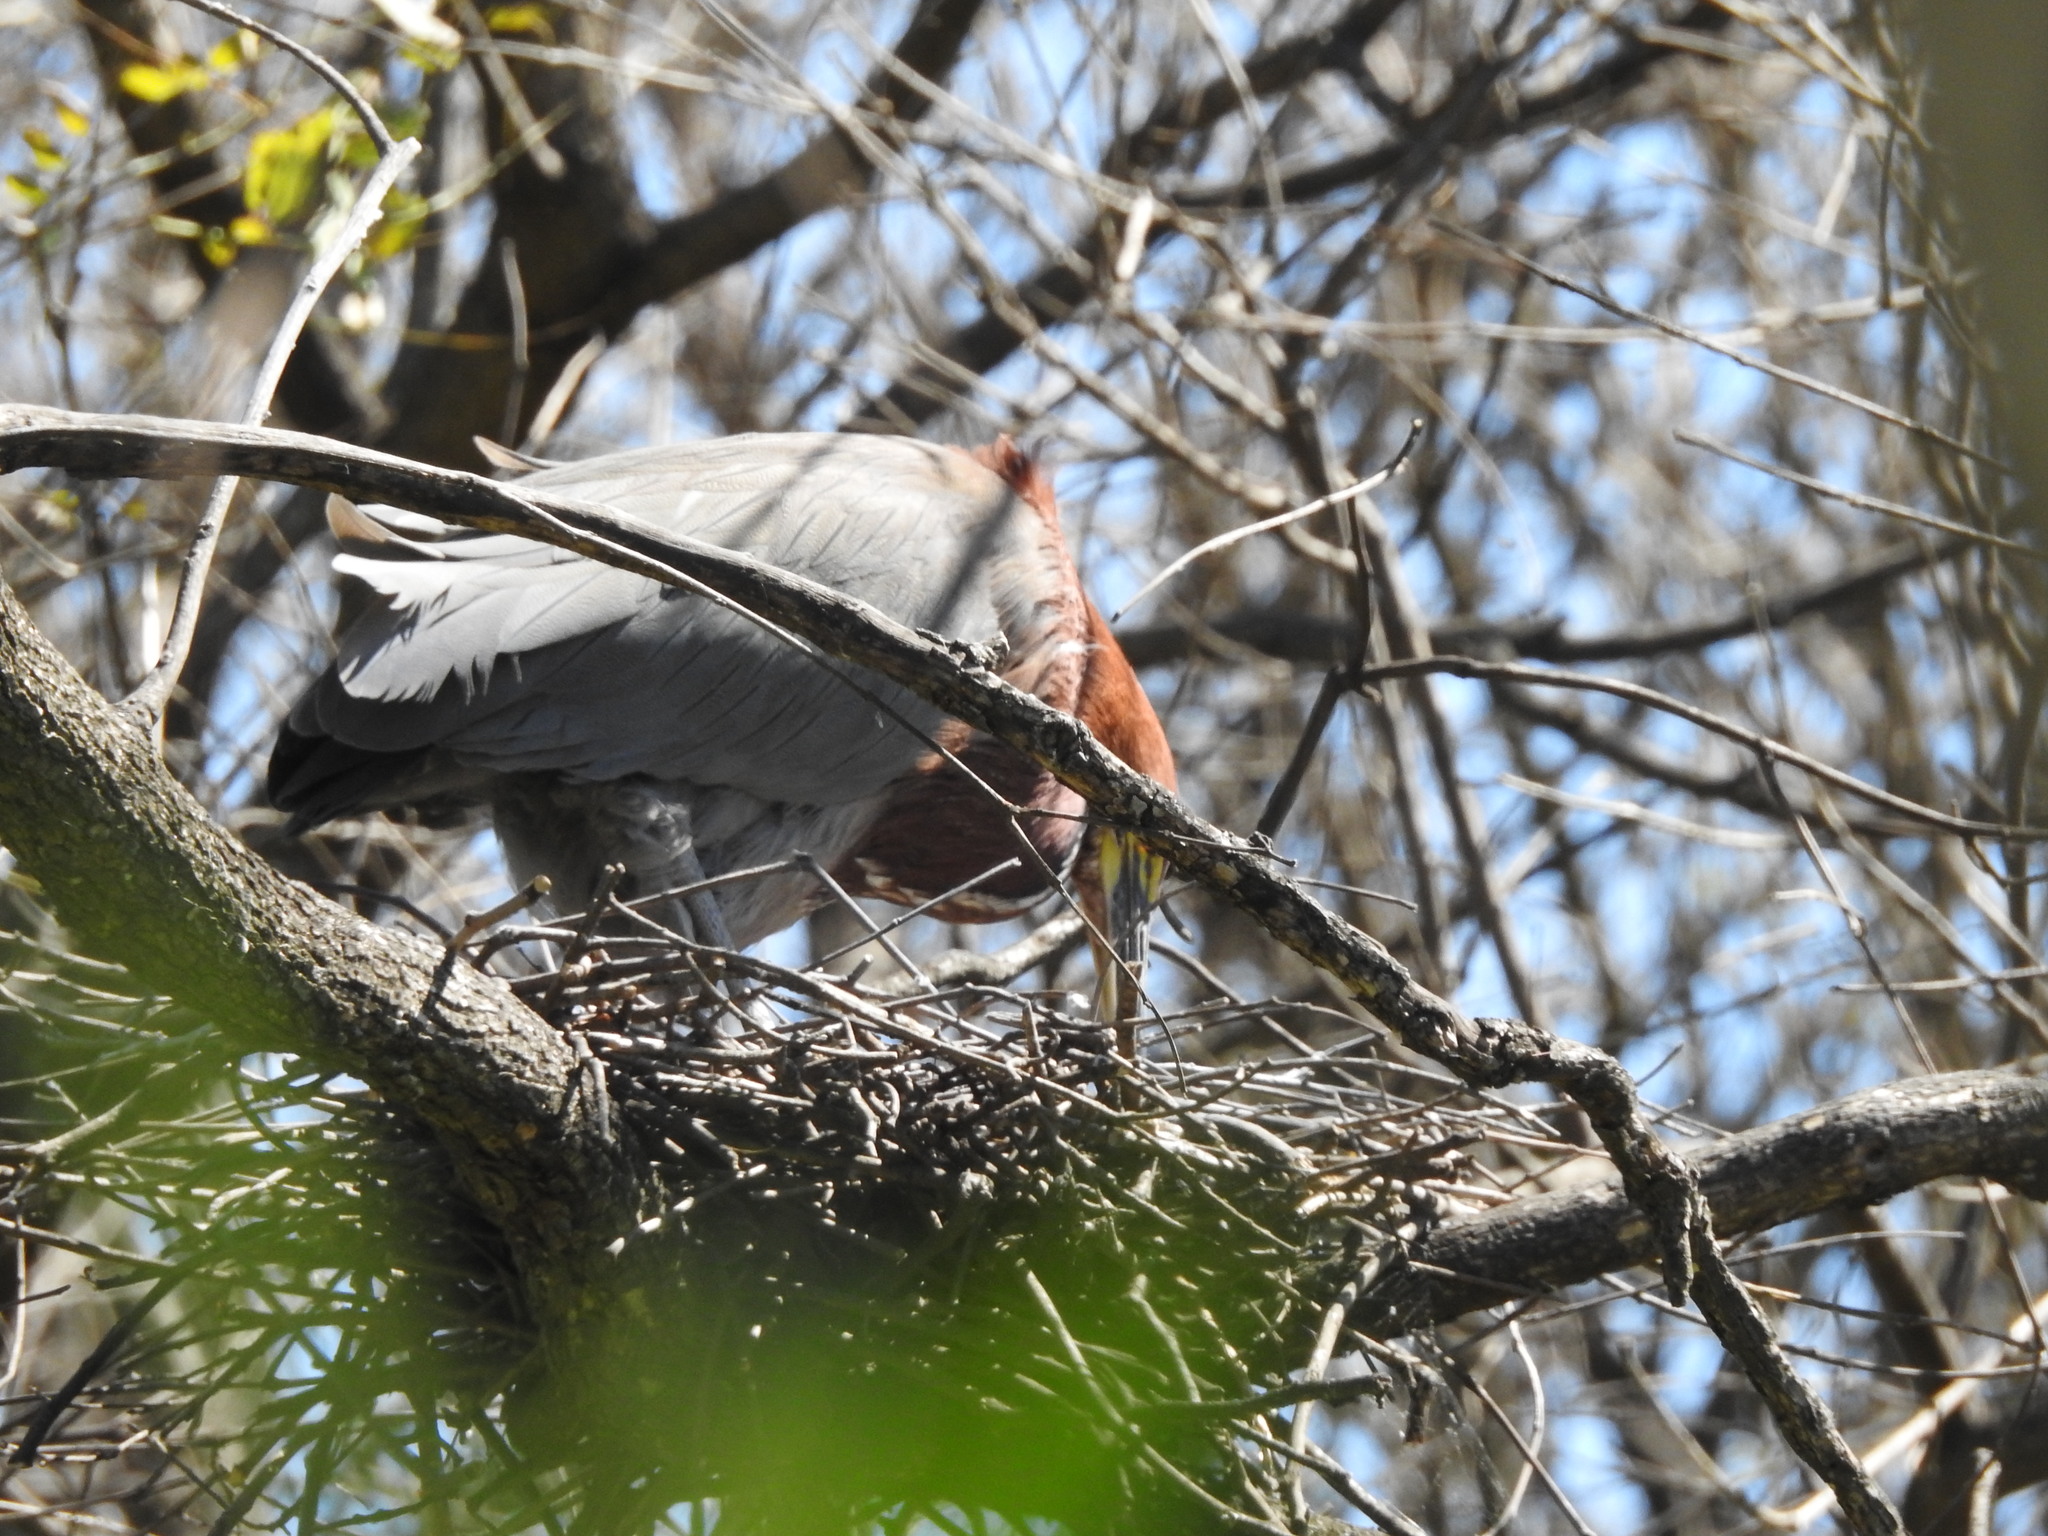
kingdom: Animalia
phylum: Chordata
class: Aves
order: Pelecaniformes
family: Ardeidae
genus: Tigrisoma
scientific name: Tigrisoma lineatum
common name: Rufescent tiger-heron
